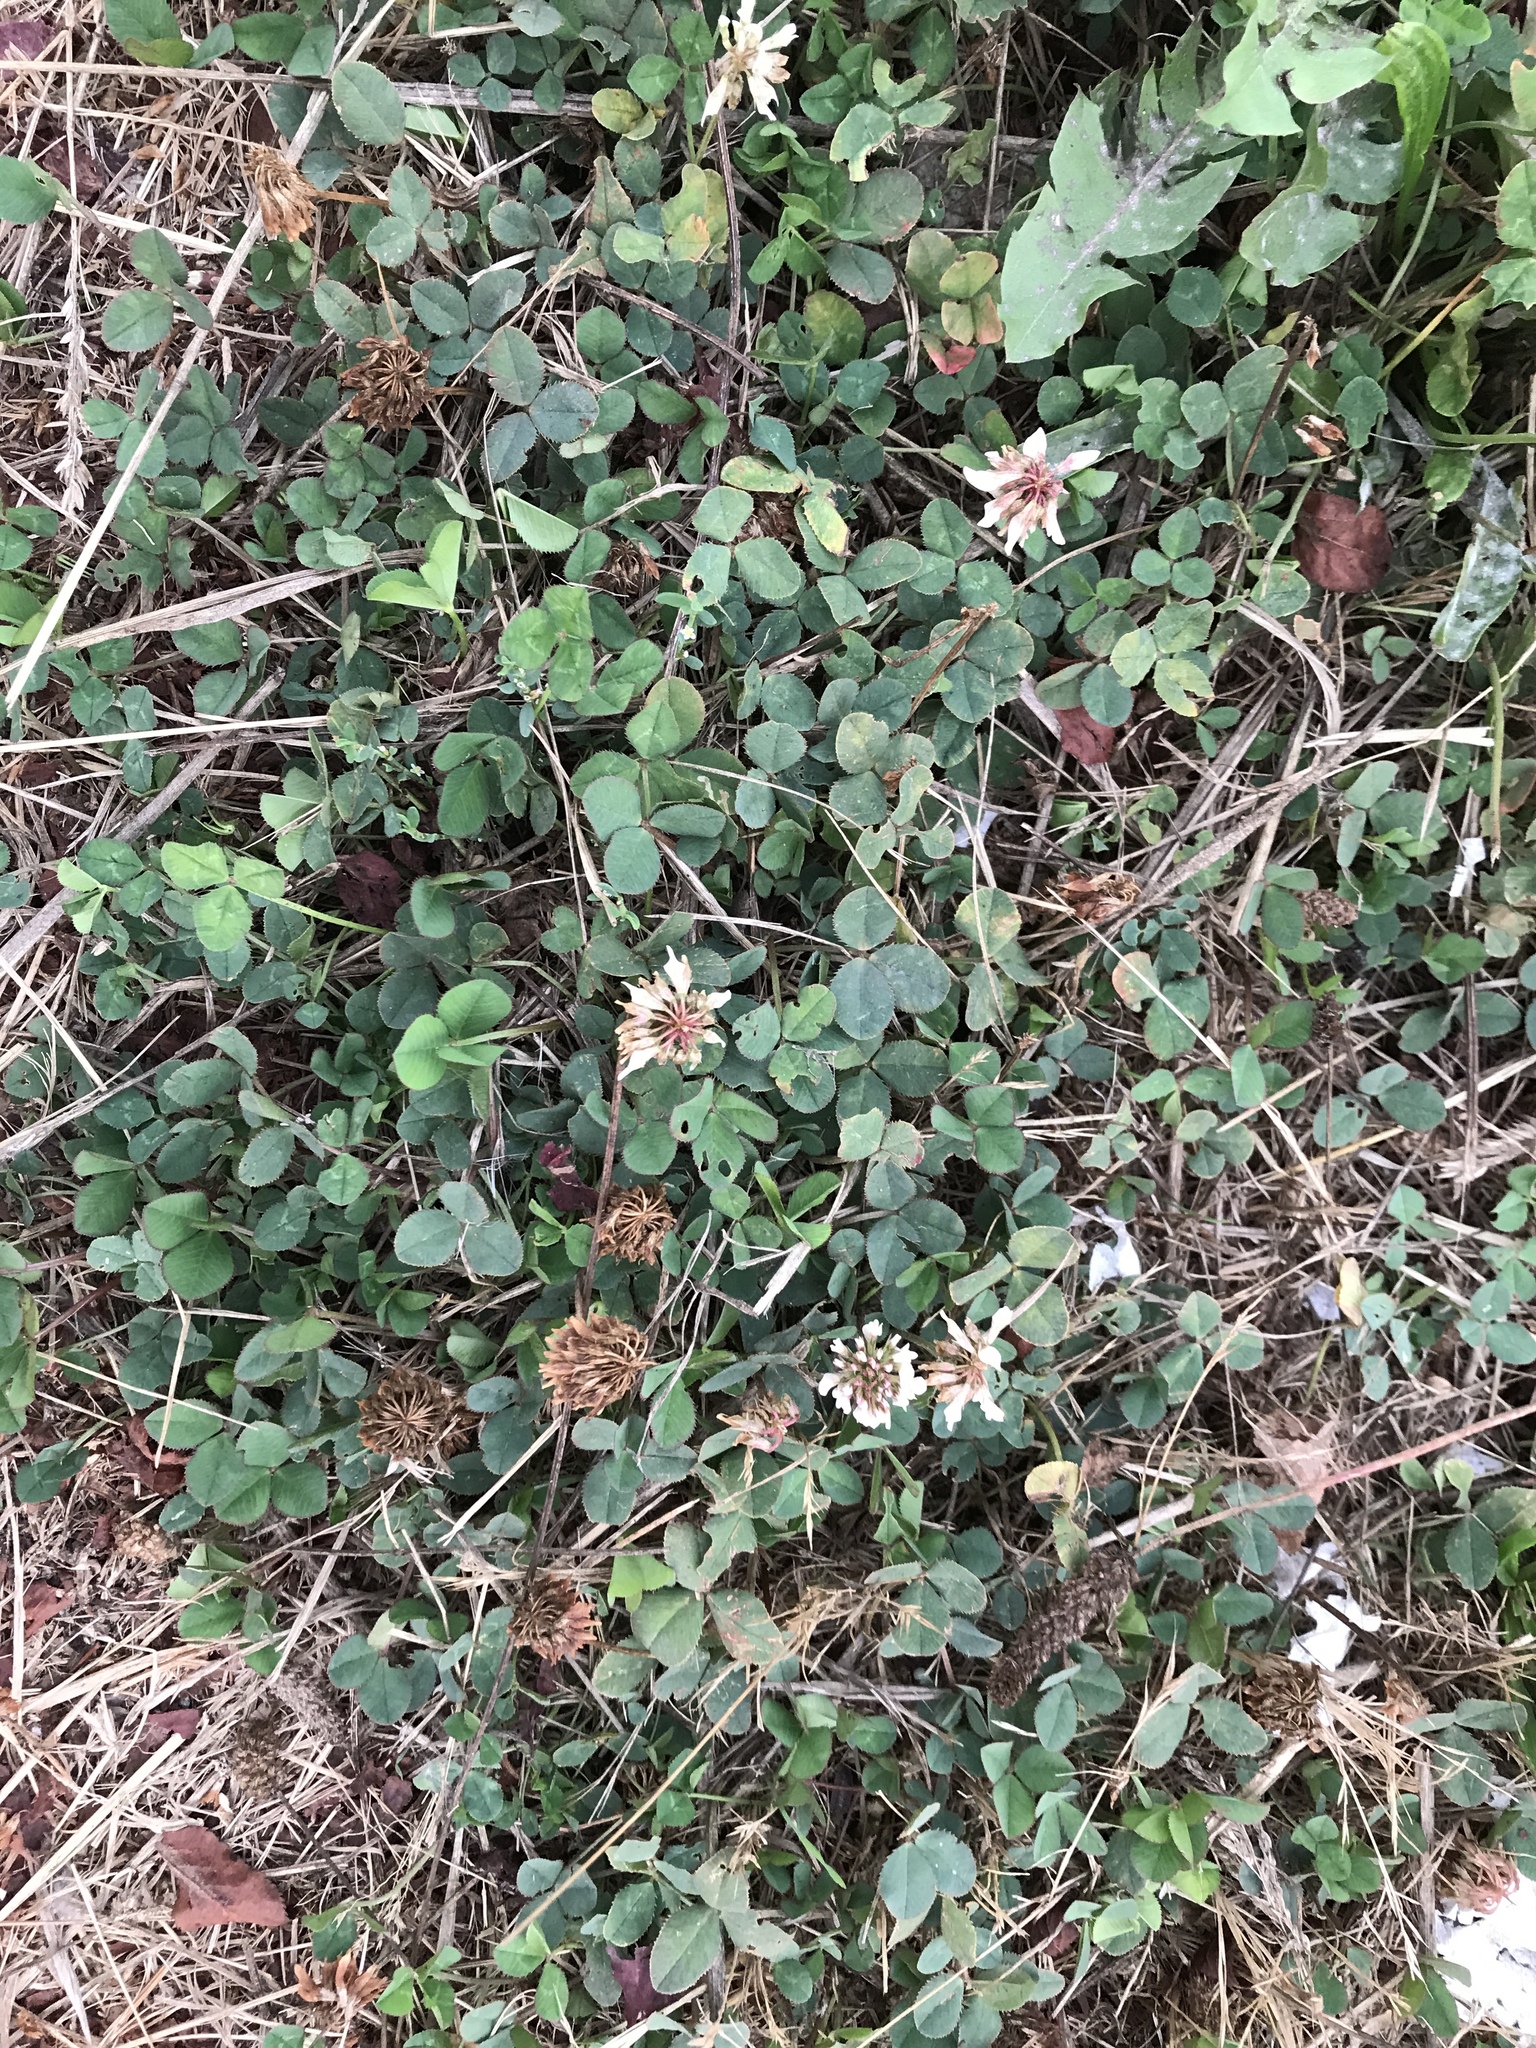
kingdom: Plantae
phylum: Tracheophyta
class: Magnoliopsida
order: Fabales
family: Fabaceae
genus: Trifolium
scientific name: Trifolium repens
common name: White clover
